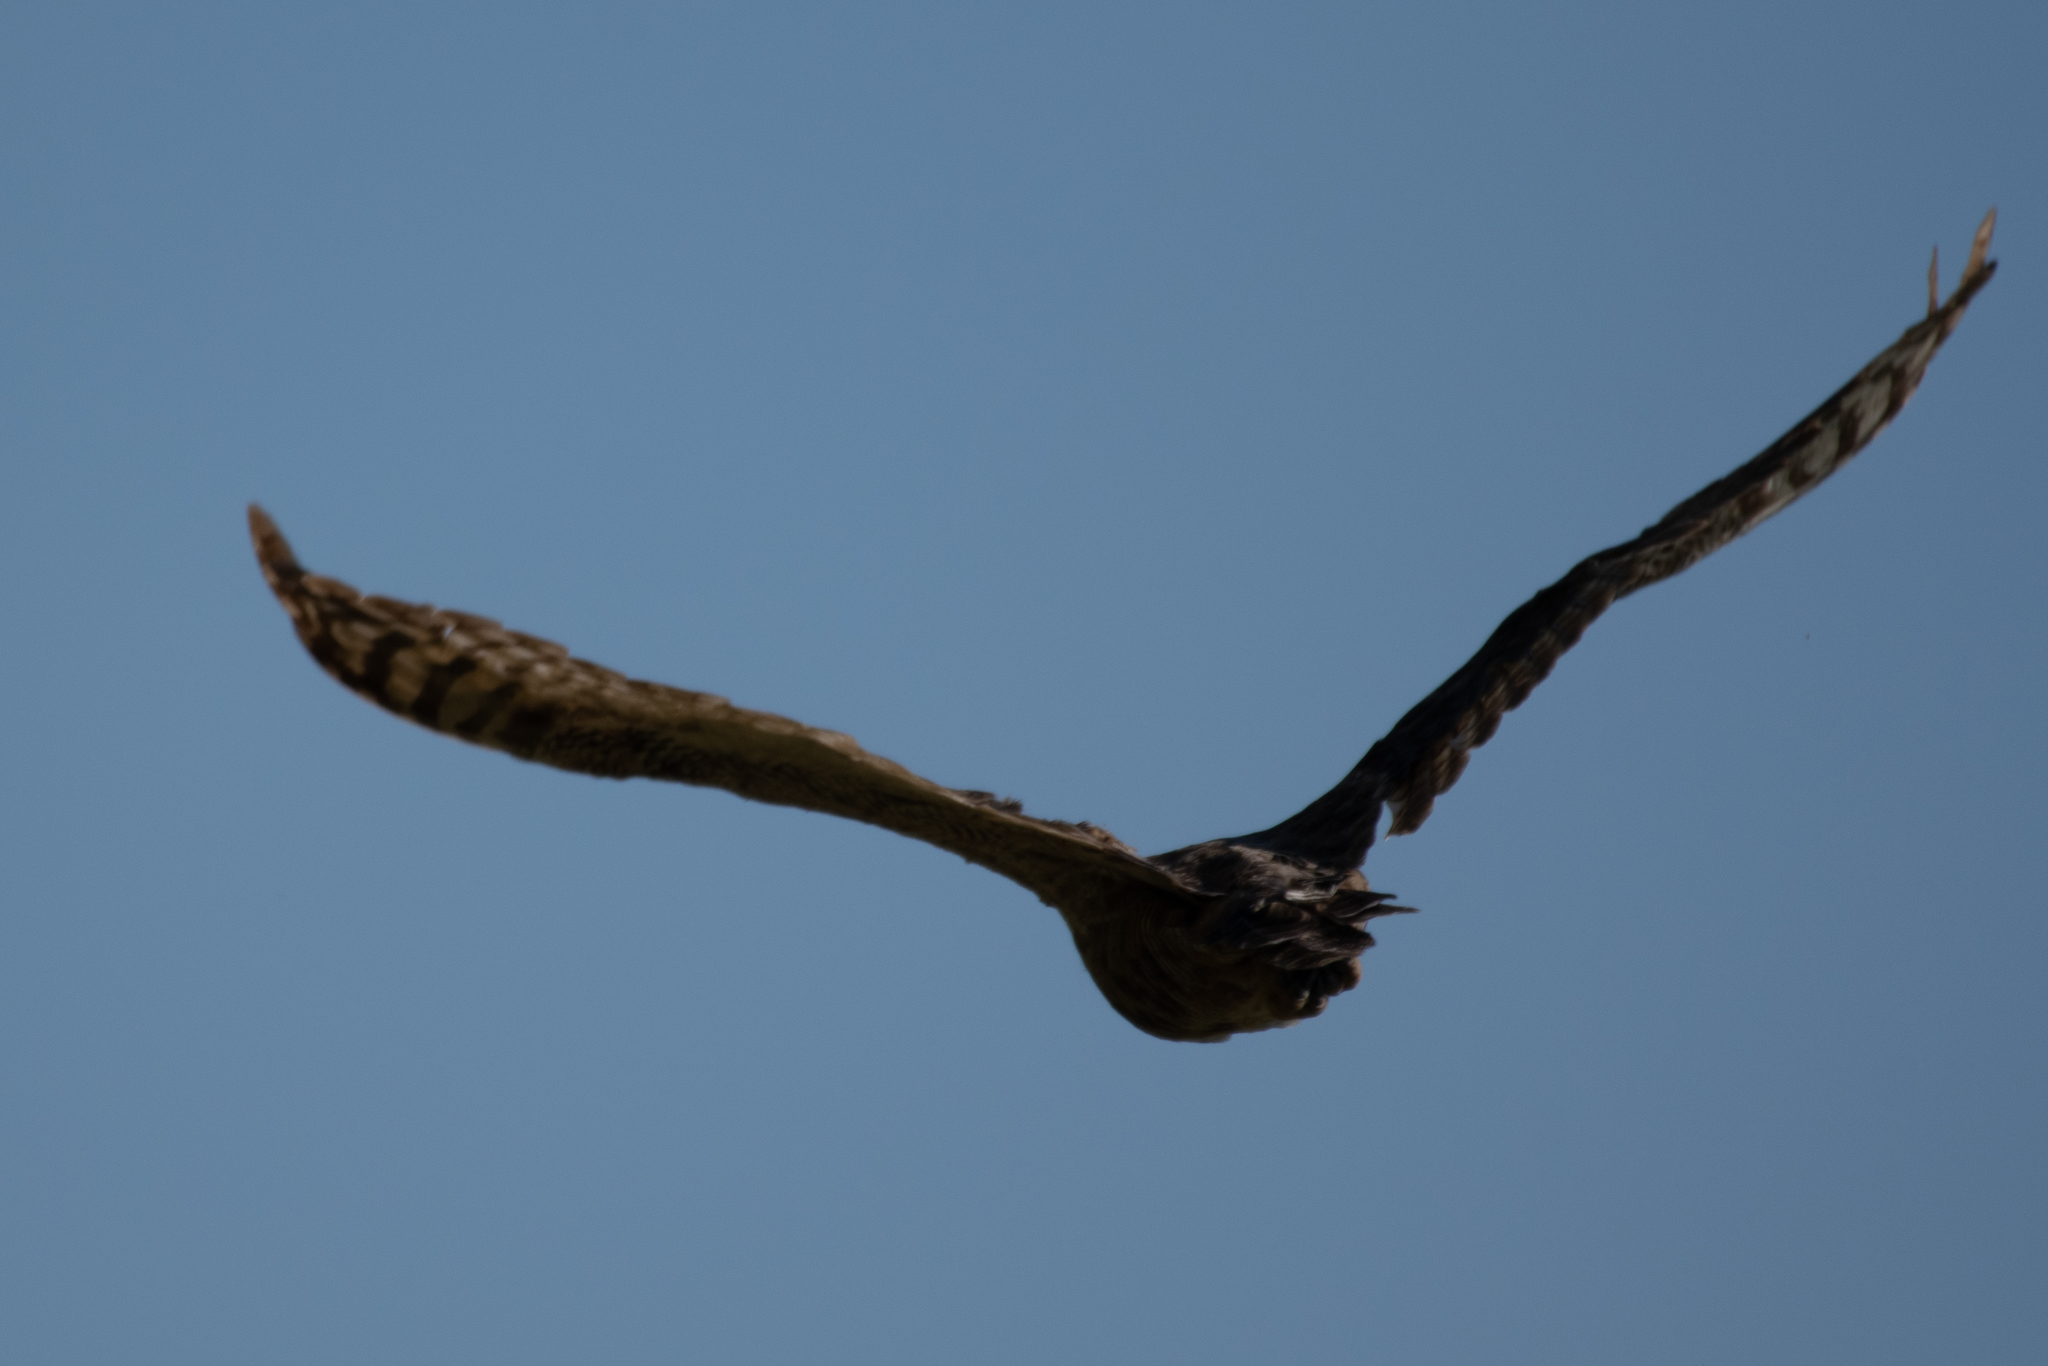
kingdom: Animalia
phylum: Chordata
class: Aves
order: Strigiformes
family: Strigidae
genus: Bubo
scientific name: Bubo virginianus
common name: Great horned owl
